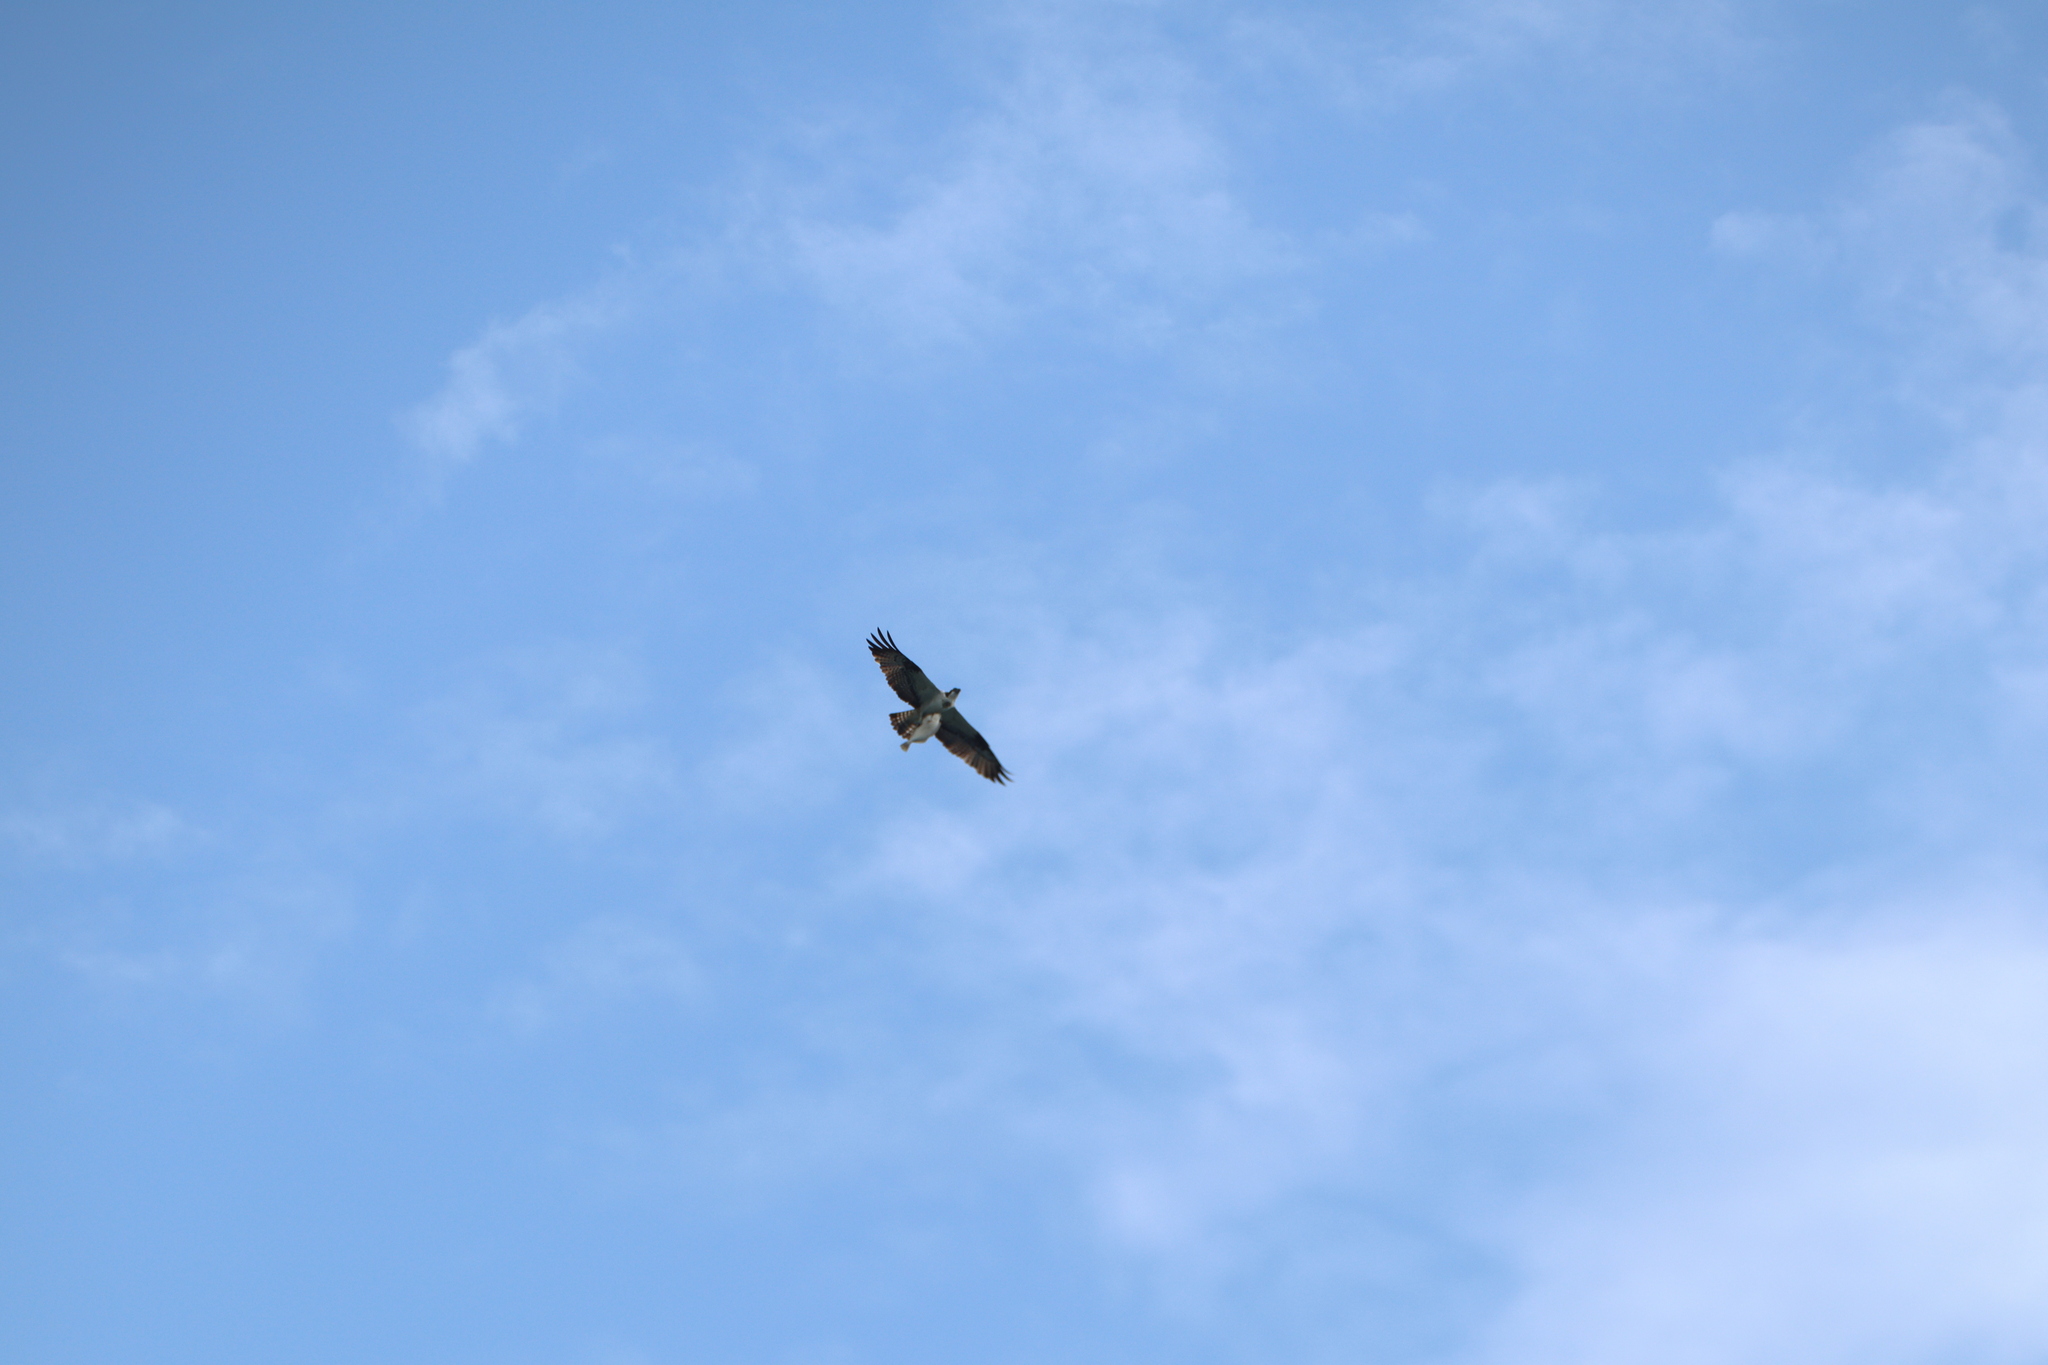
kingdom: Animalia
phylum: Chordata
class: Aves
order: Accipitriformes
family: Pandionidae
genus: Pandion
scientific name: Pandion haliaetus
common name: Osprey
